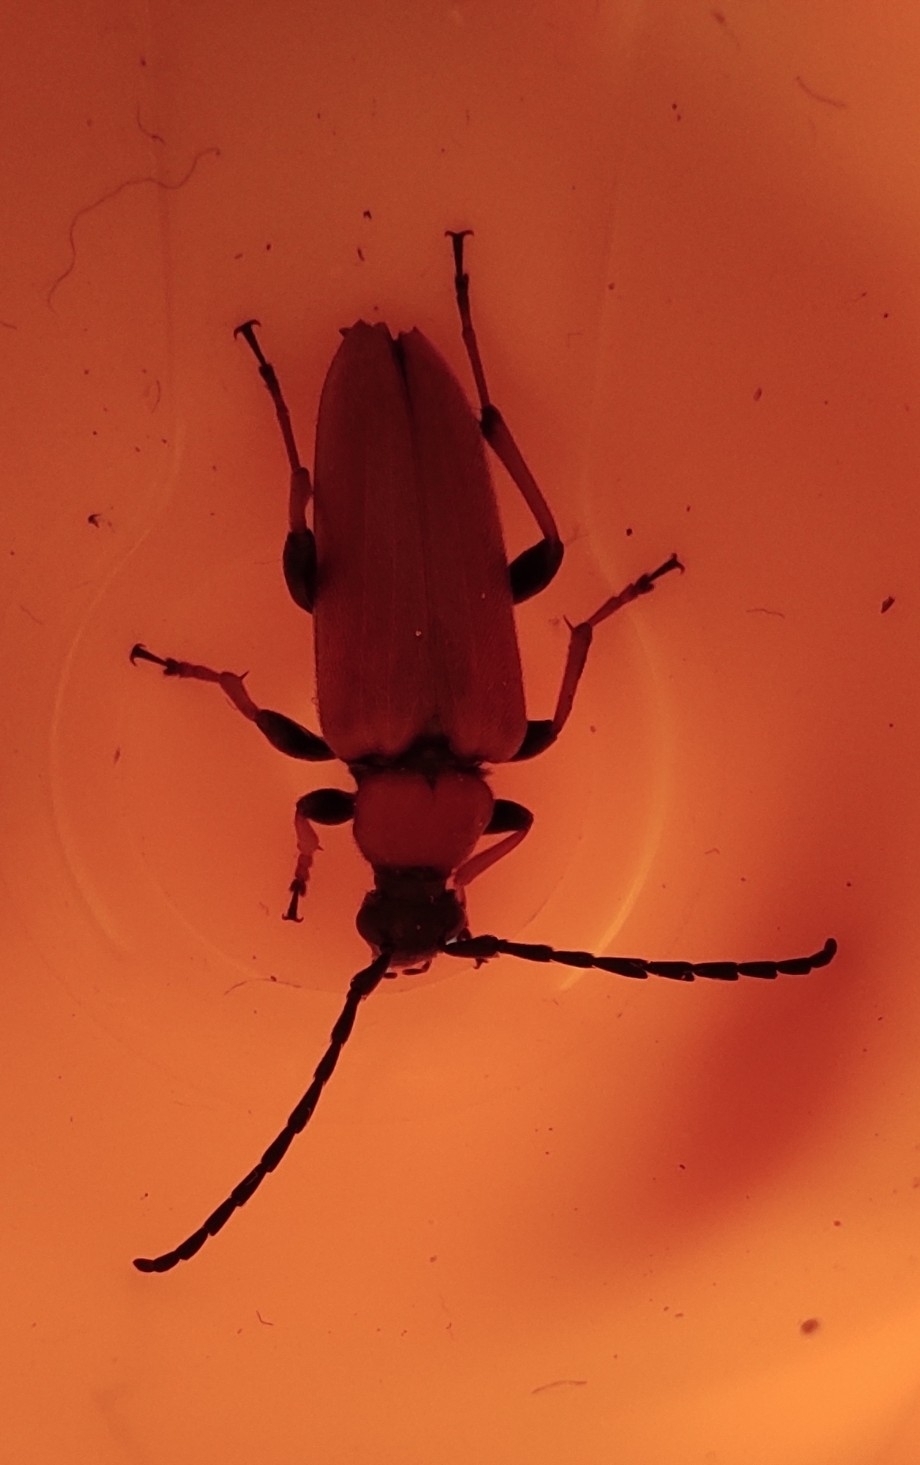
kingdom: Animalia
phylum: Arthropoda
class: Insecta
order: Coleoptera
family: Cerambycidae
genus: Stictoleptura
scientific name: Stictoleptura rubra
